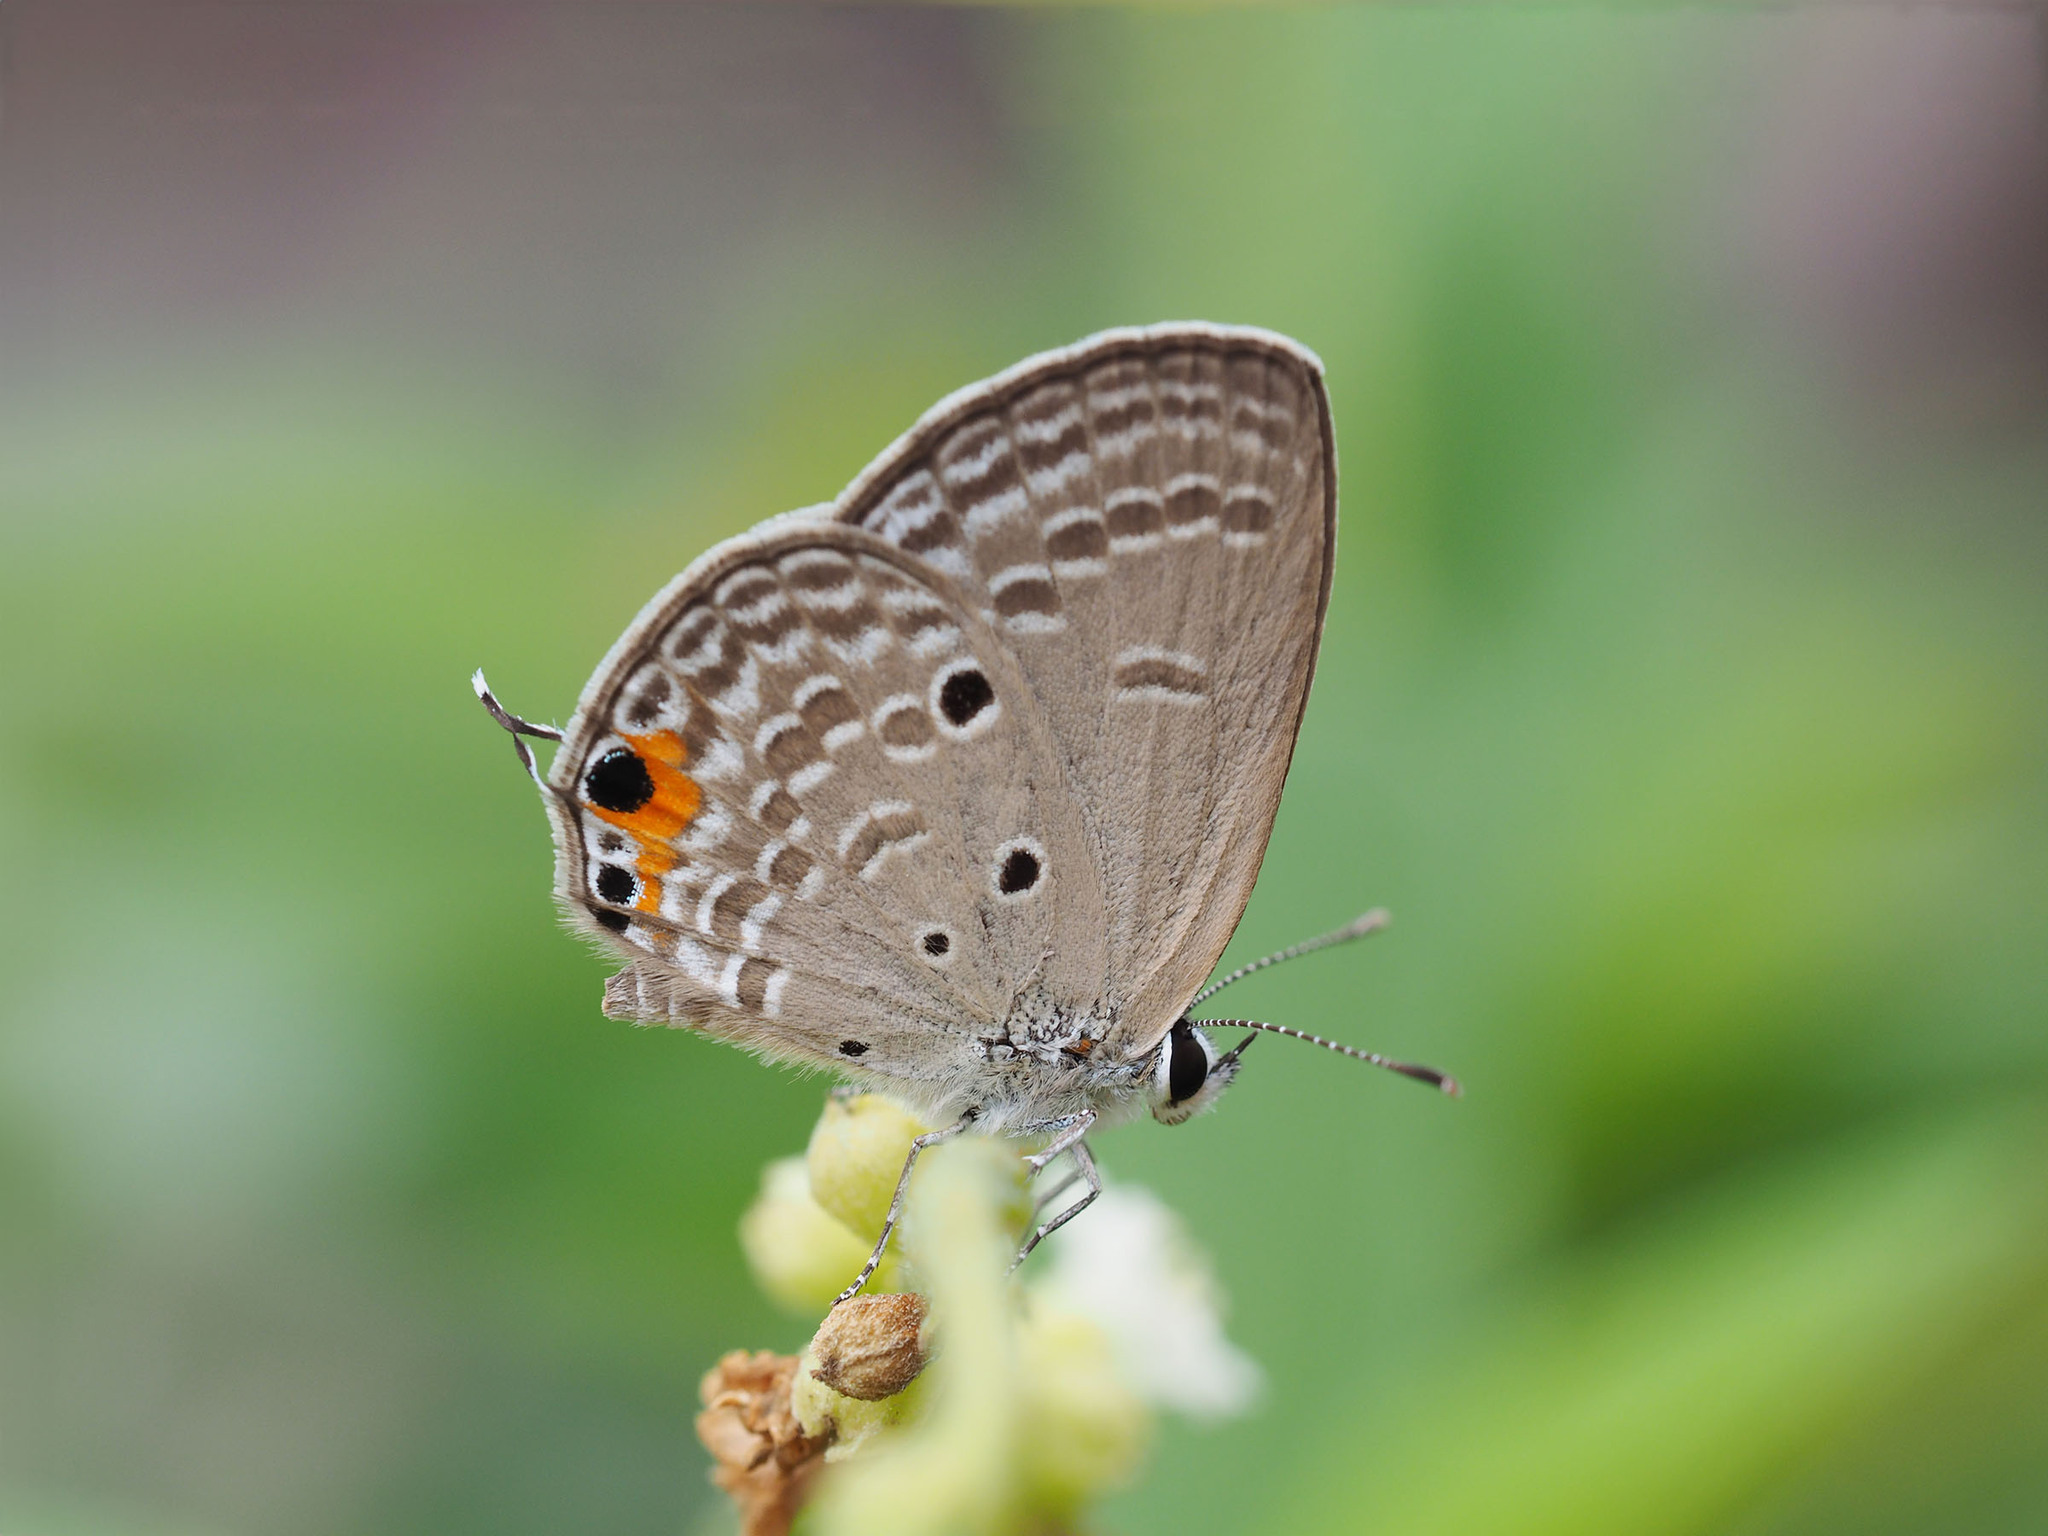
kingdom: Animalia
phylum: Arthropoda
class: Insecta
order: Lepidoptera
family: Lycaenidae
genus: Luthrodes
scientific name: Luthrodes pandava
